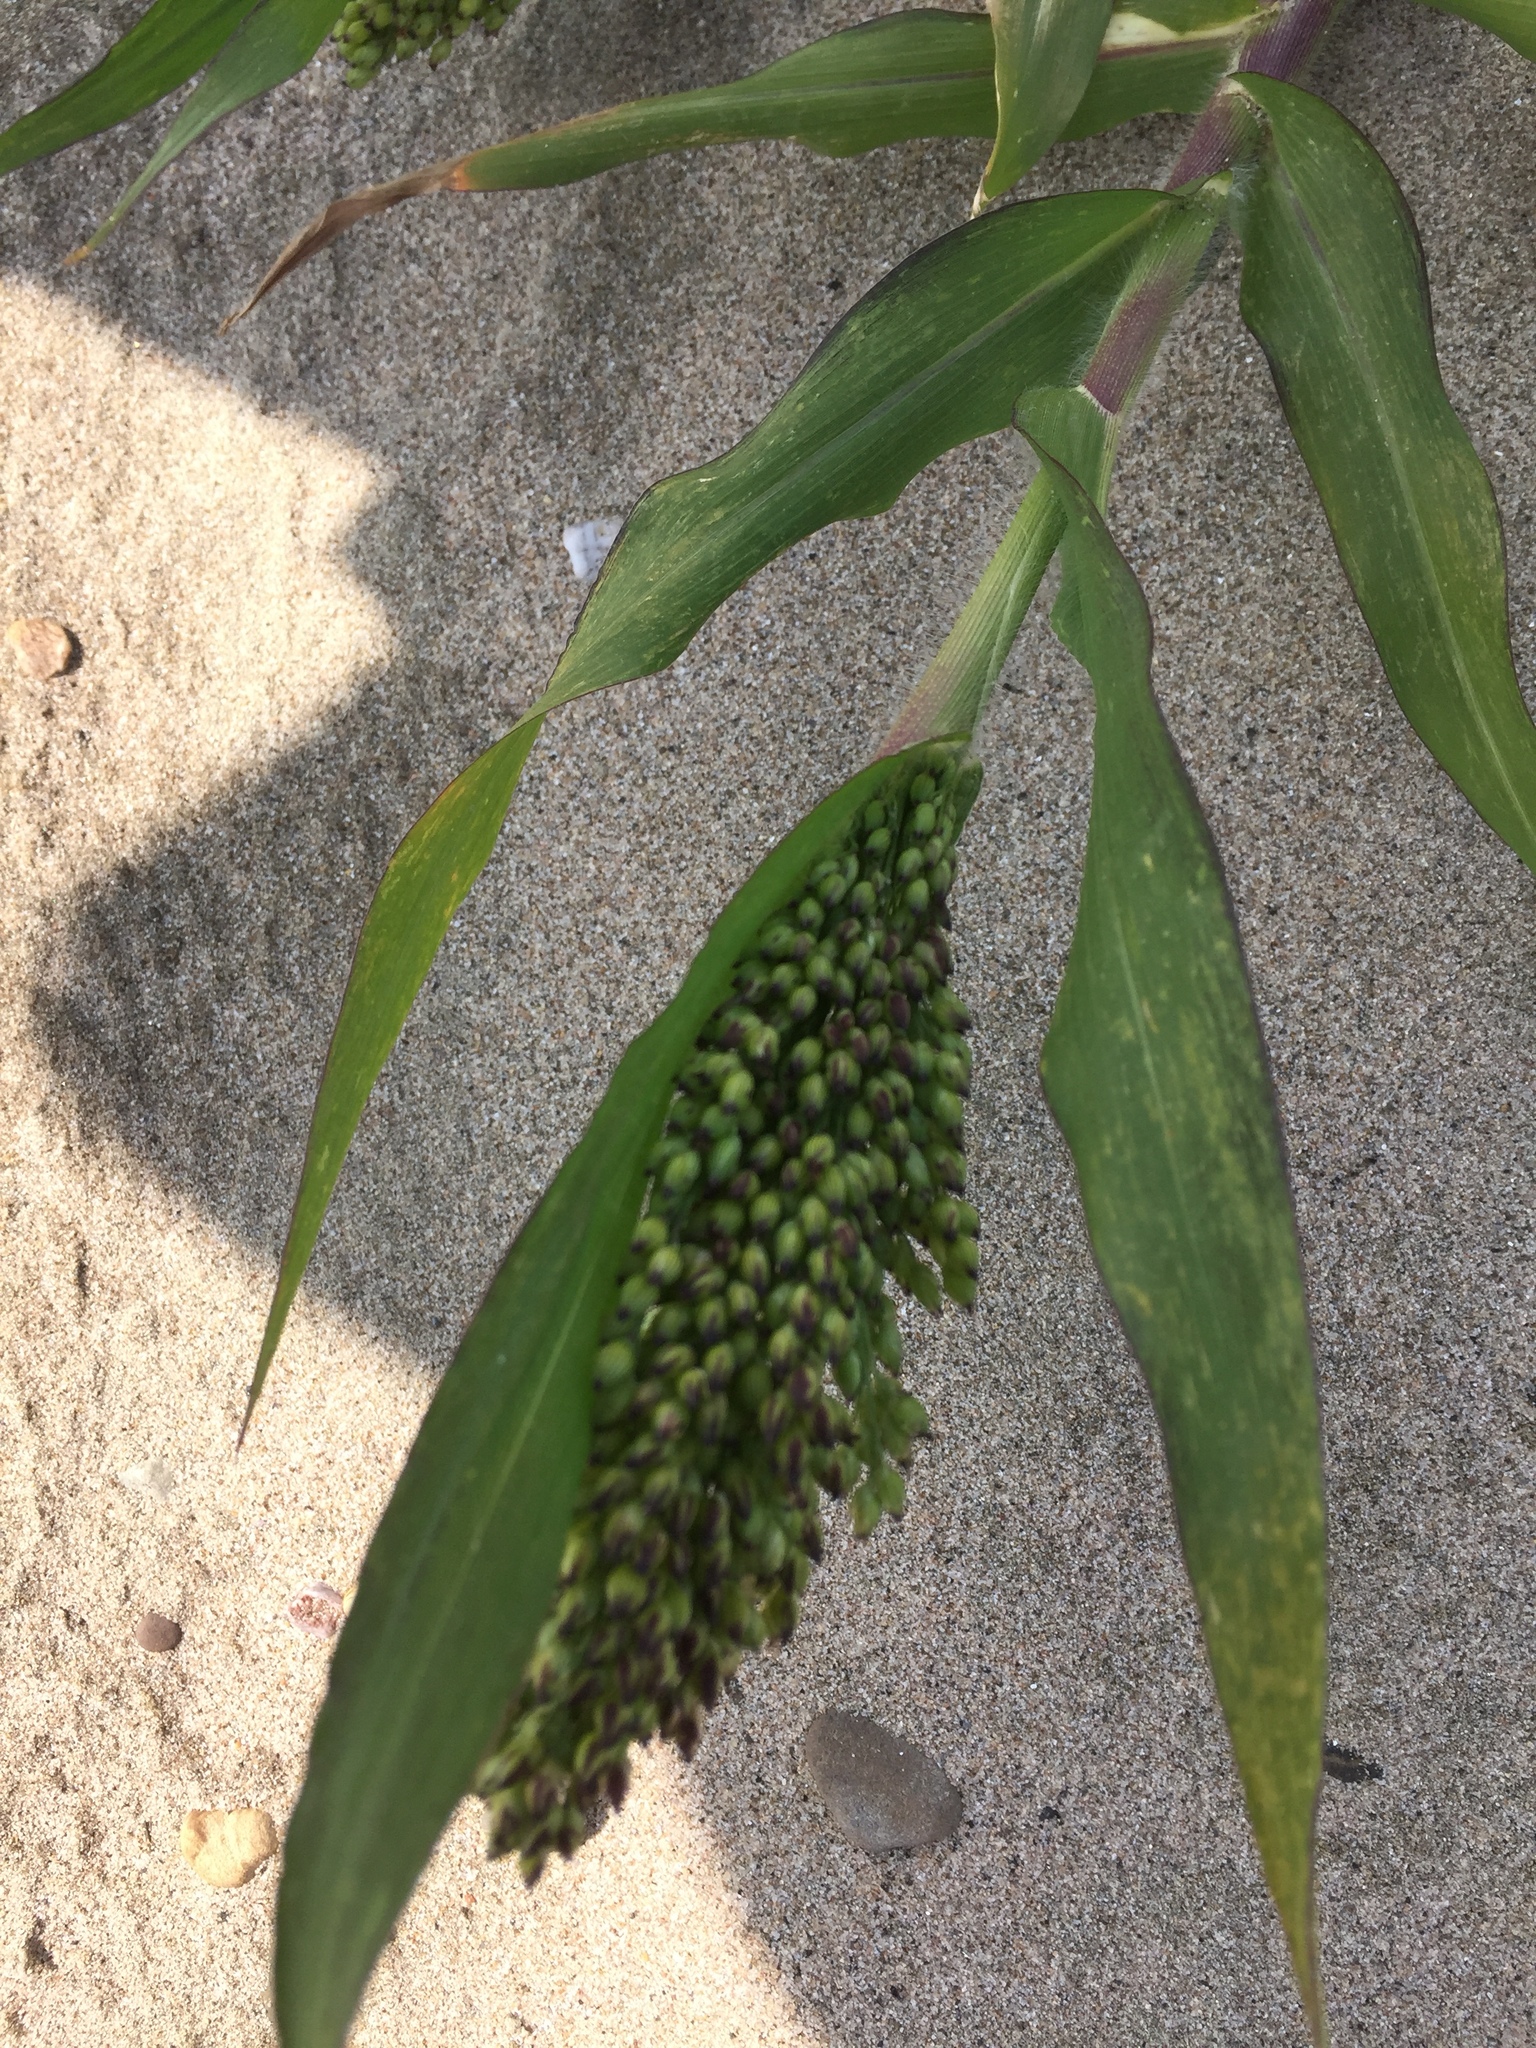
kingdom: Plantae
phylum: Tracheophyta
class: Liliopsida
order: Poales
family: Poaceae
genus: Panicum
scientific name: Panicum miliaceum
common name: Common millet
